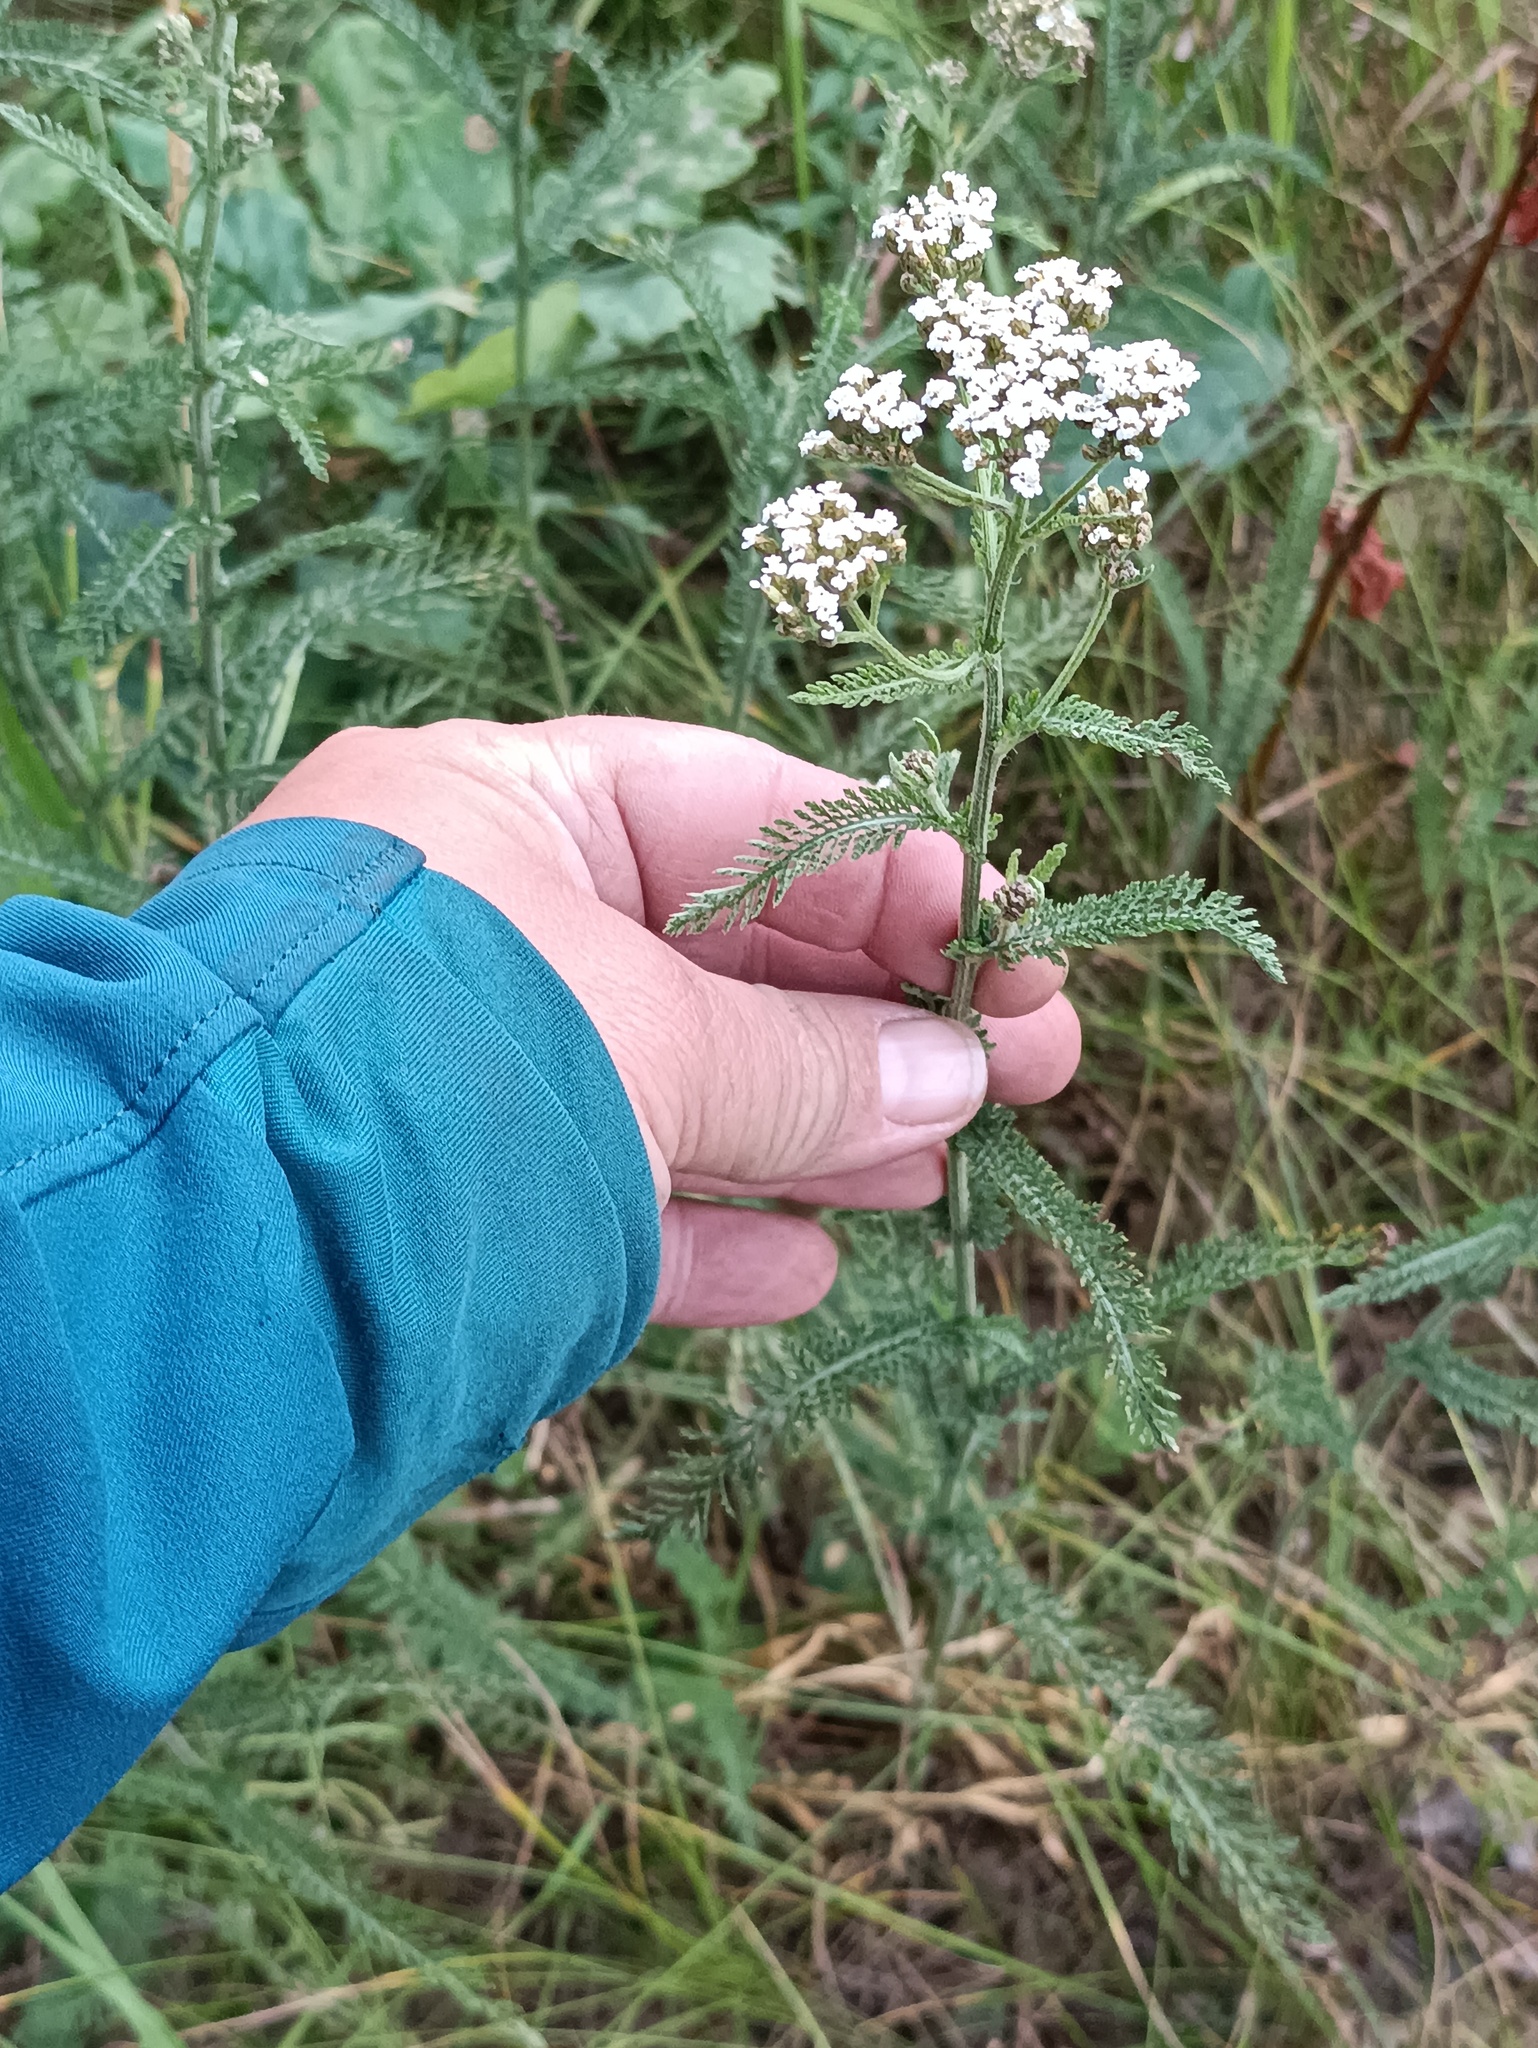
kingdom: Plantae
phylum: Tracheophyta
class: Magnoliopsida
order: Asterales
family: Asteraceae
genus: Achillea
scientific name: Achillea millefolium
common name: Yarrow
